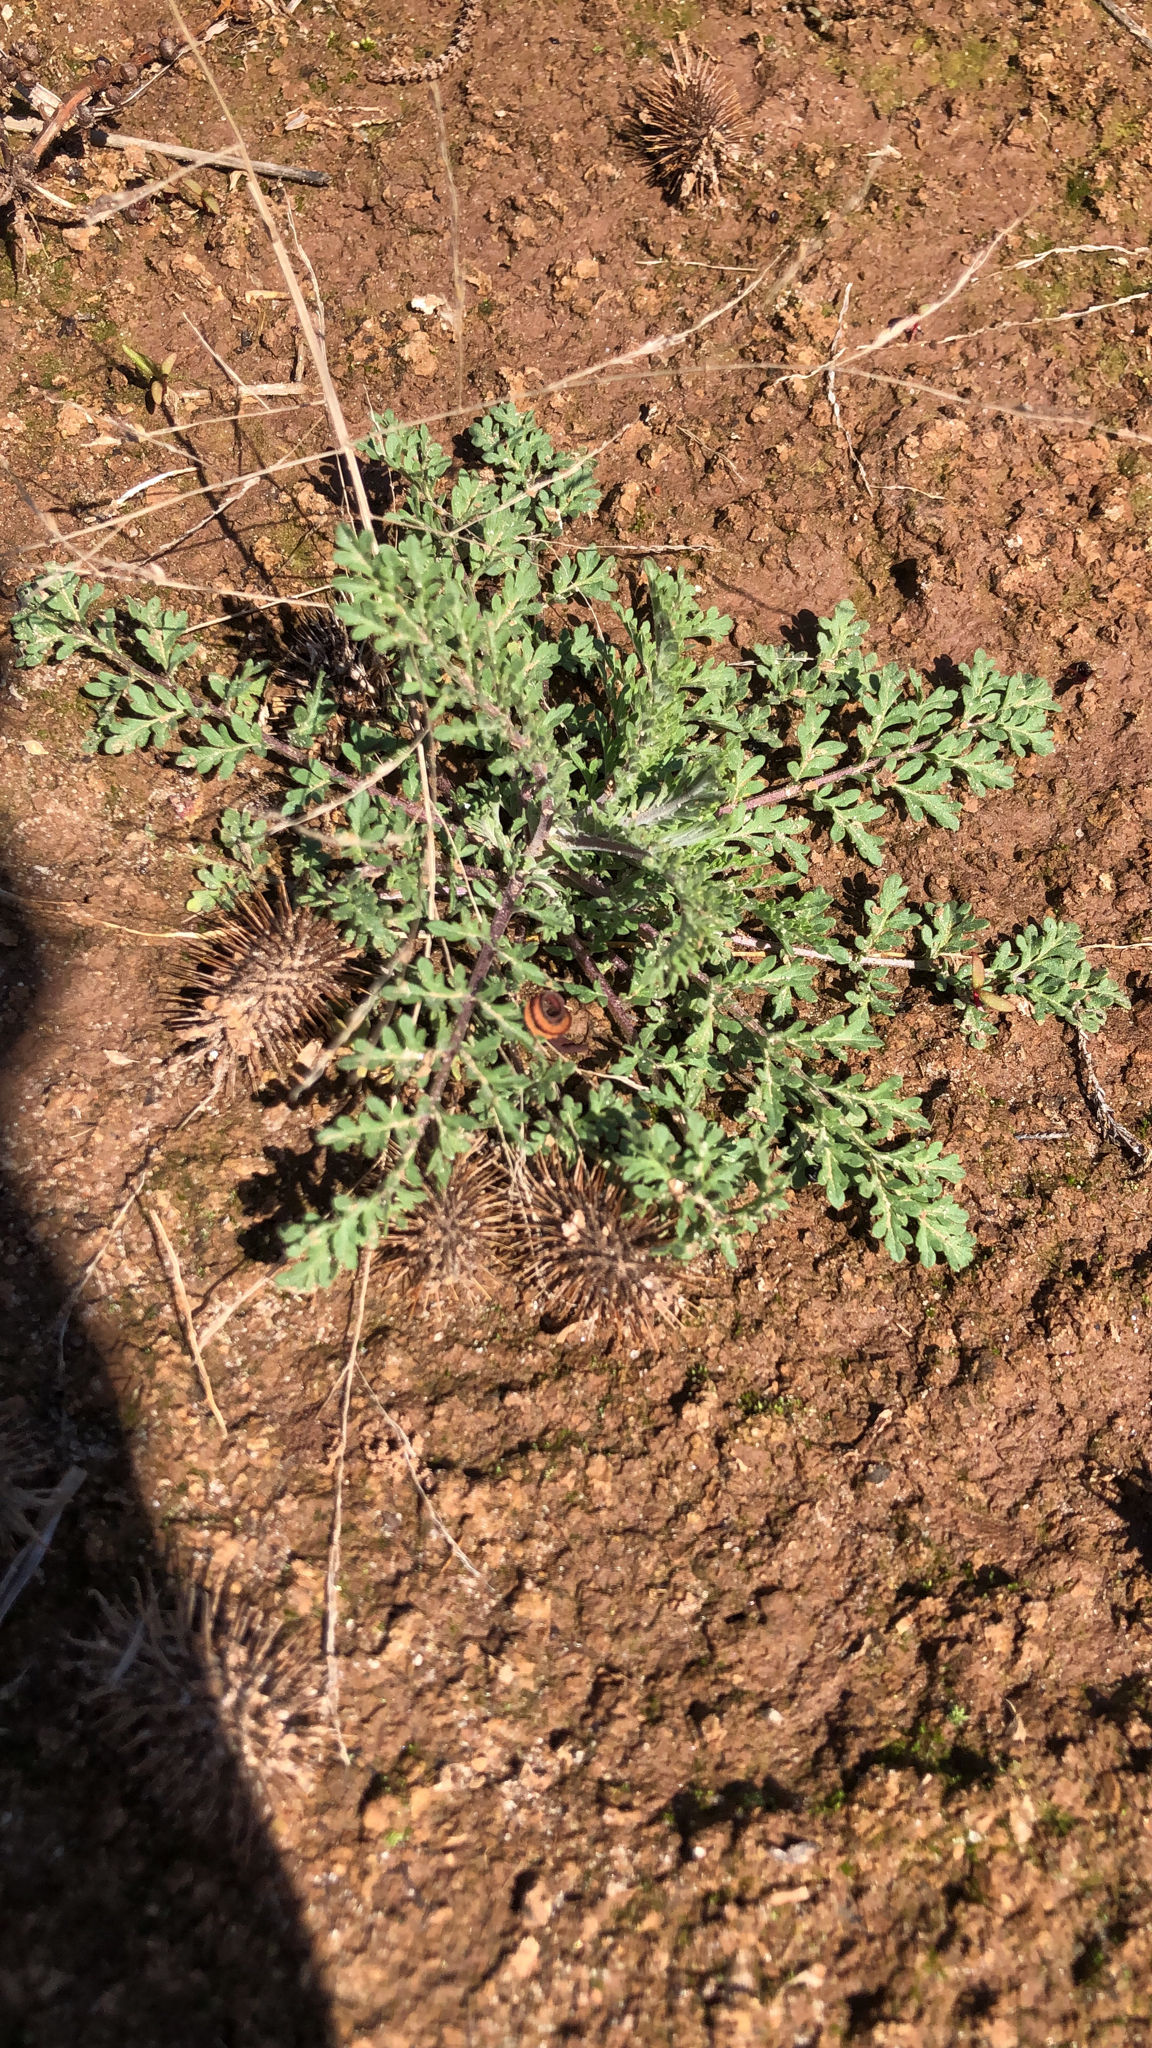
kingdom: Plantae
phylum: Tracheophyta
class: Magnoliopsida
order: Brassicales
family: Brassicaceae
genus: Descurainia
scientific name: Descurainia pinnata
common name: Western tansy mustard
